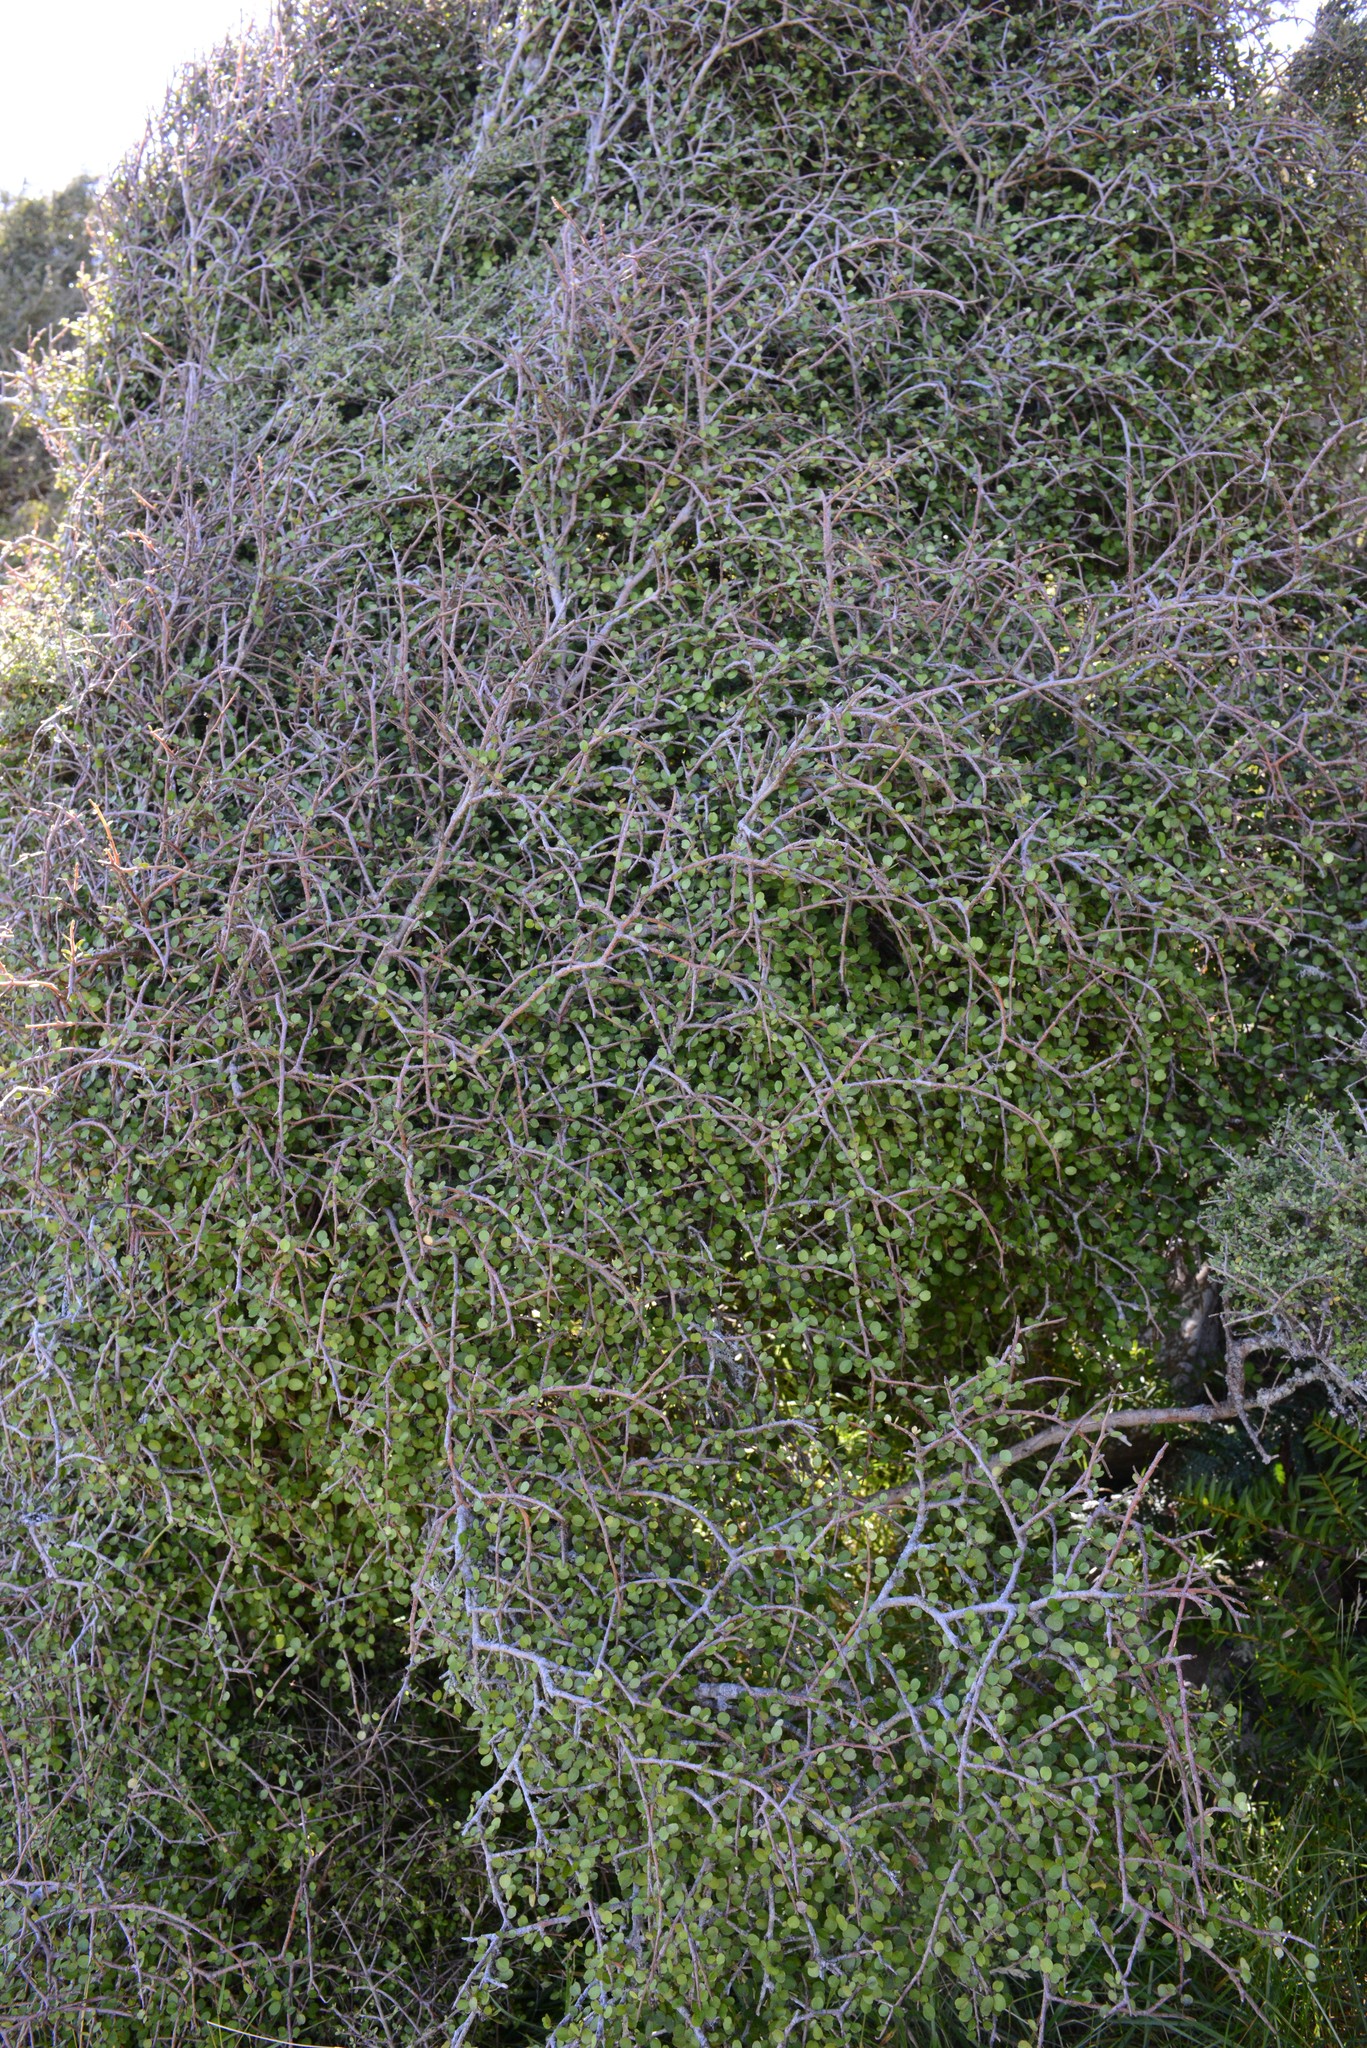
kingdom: Plantae
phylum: Tracheophyta
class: Magnoliopsida
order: Ericales
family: Primulaceae
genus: Myrsine
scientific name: Myrsine divaricata
